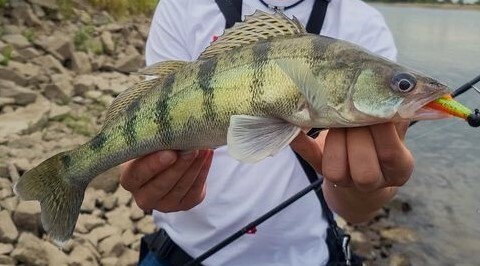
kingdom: Animalia
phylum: Chordata
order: Perciformes
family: Percidae
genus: Sander
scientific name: Sander volgensis
